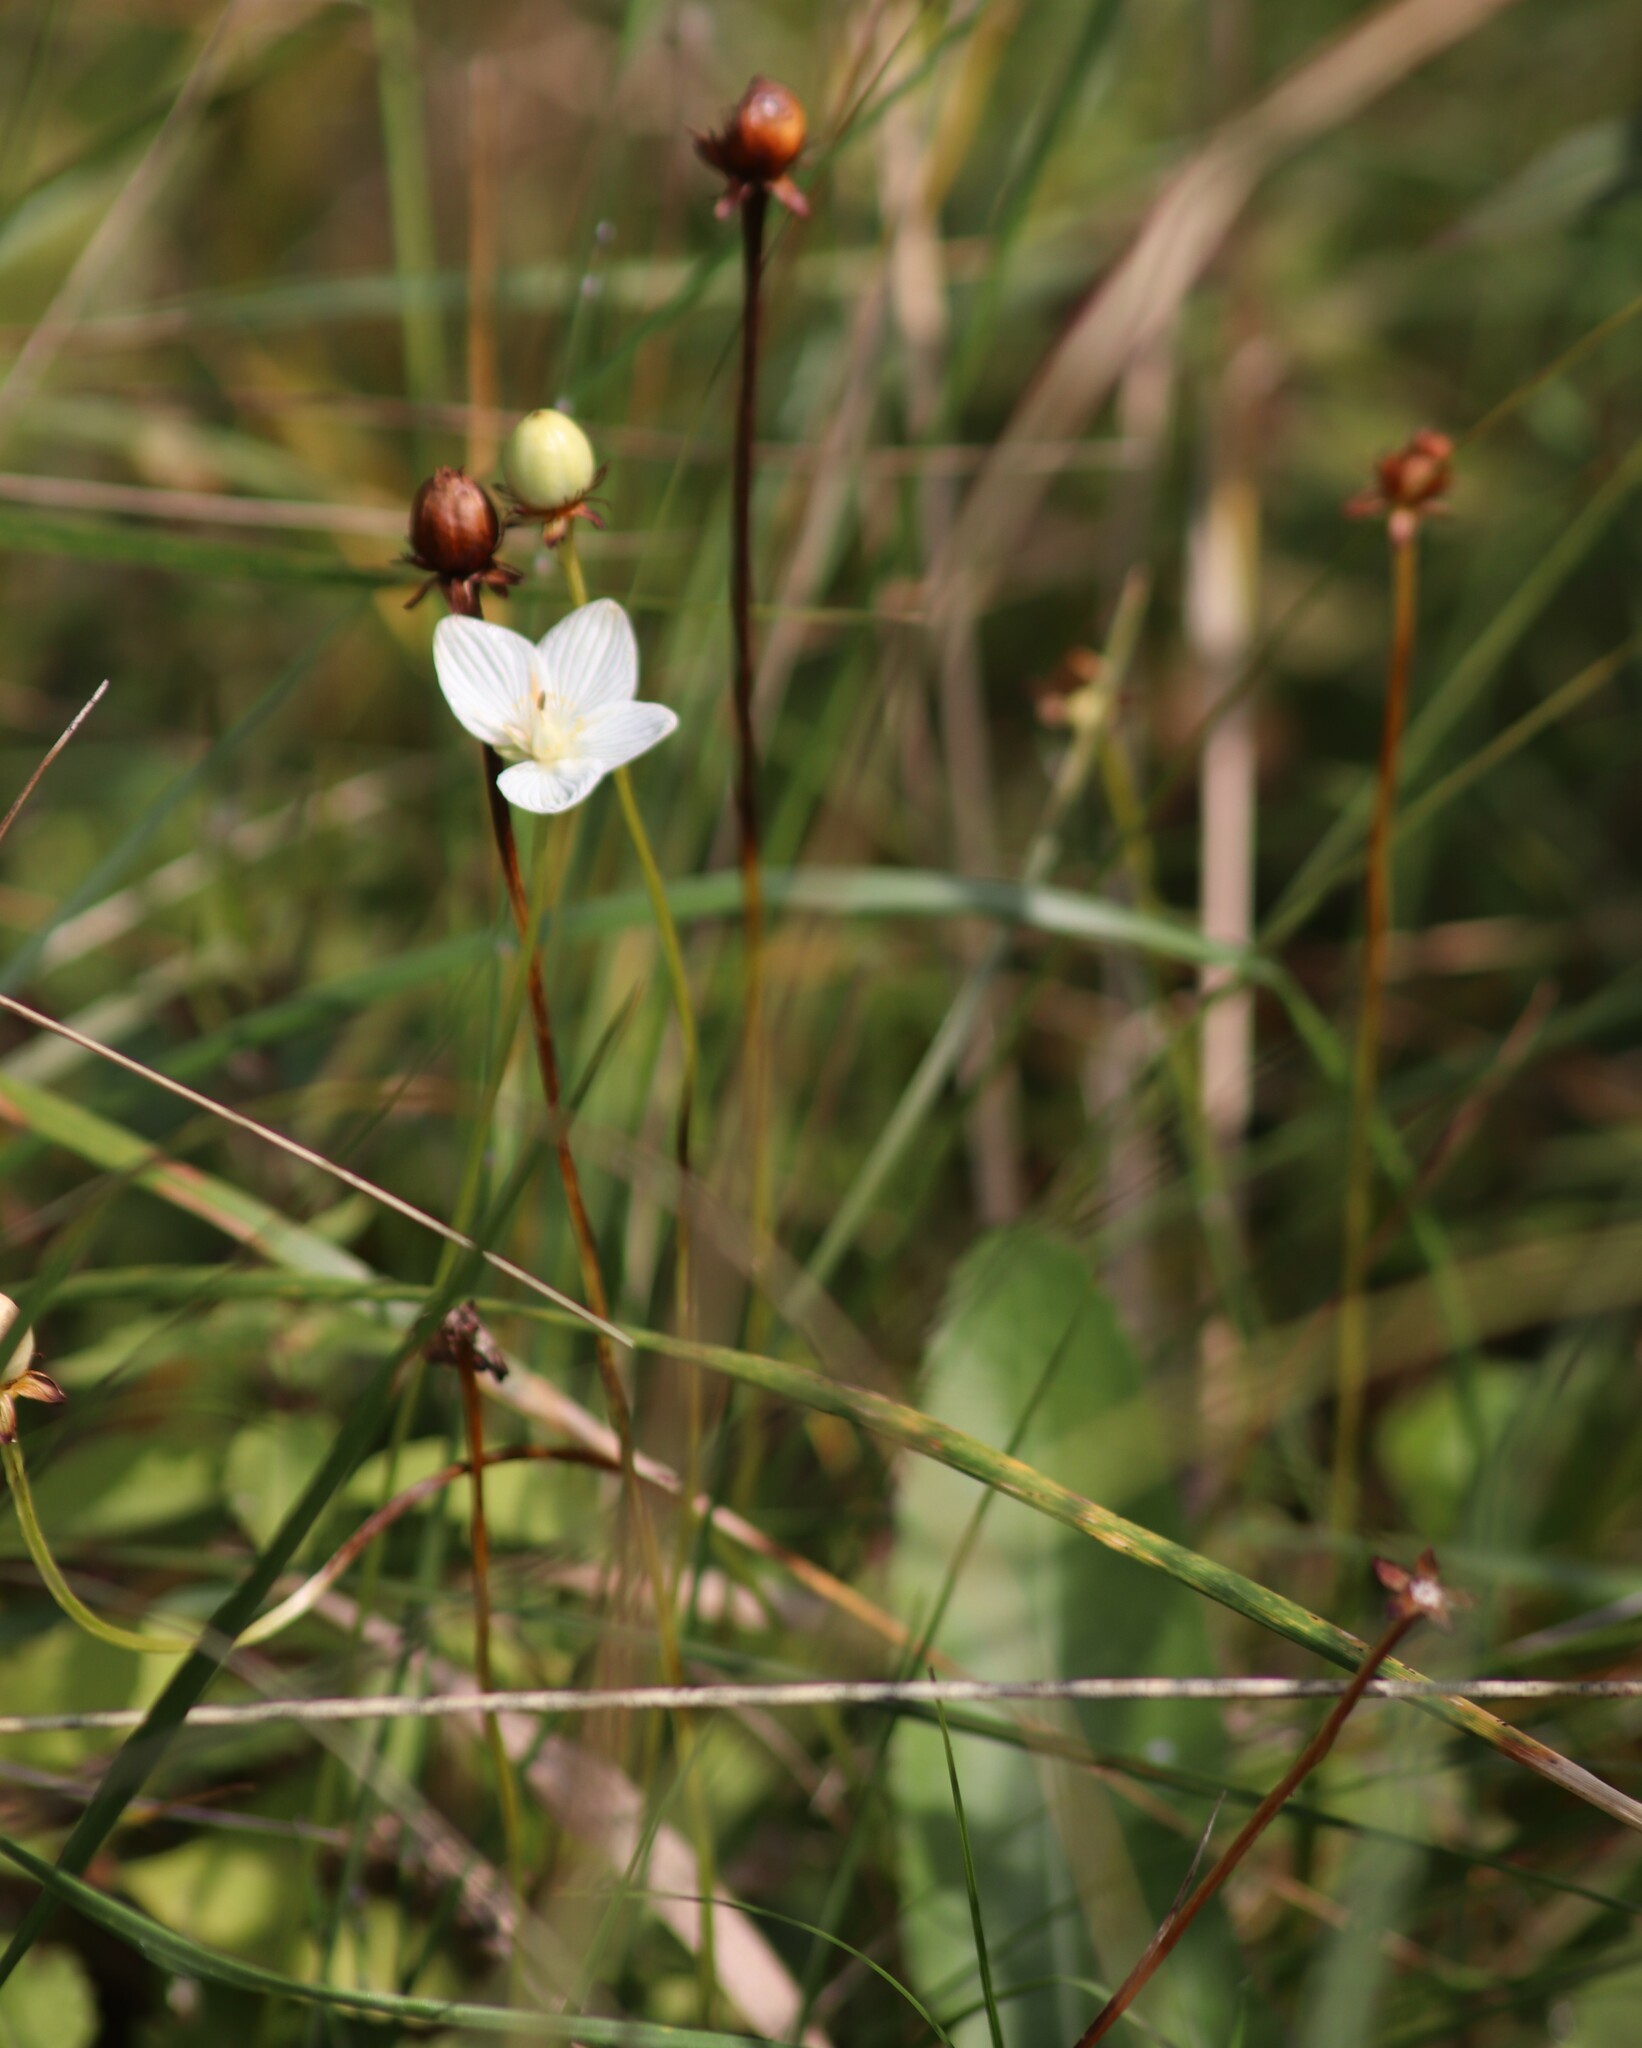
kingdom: Plantae
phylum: Tracheophyta
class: Magnoliopsida
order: Celastrales
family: Parnassiaceae
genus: Parnassia
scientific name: Parnassia glauca
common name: American grass-of-parnassus
